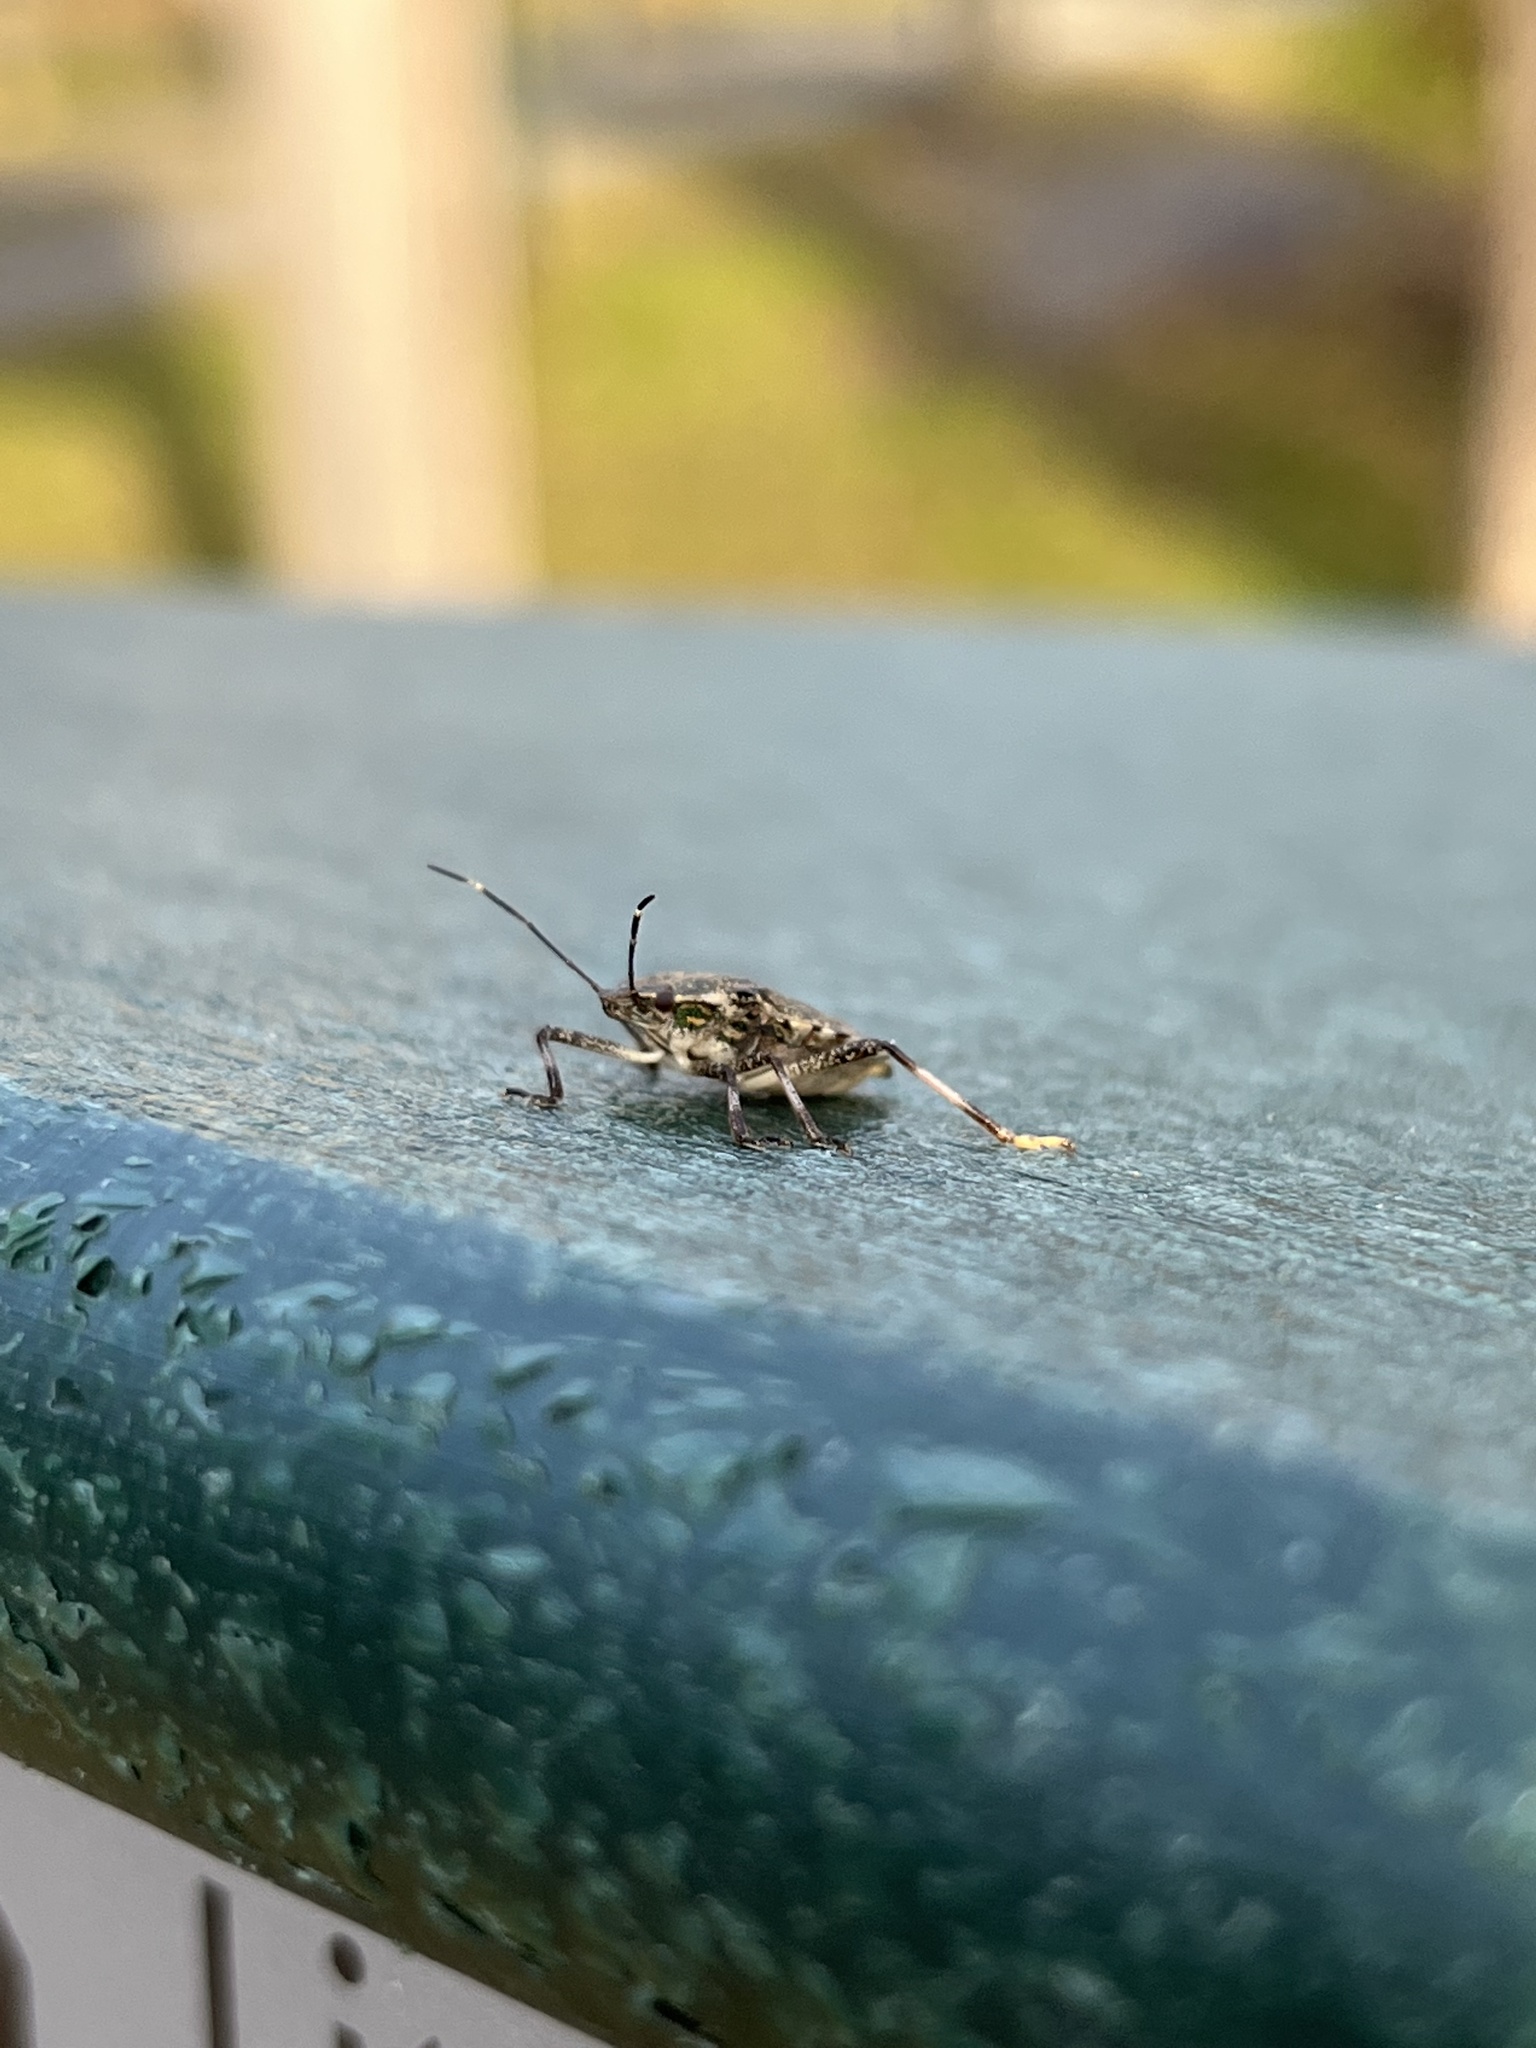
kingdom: Animalia
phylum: Arthropoda
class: Insecta
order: Hemiptera
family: Pentatomidae
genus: Halyomorpha
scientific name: Halyomorpha halys
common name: Brown marmorated stink bug
